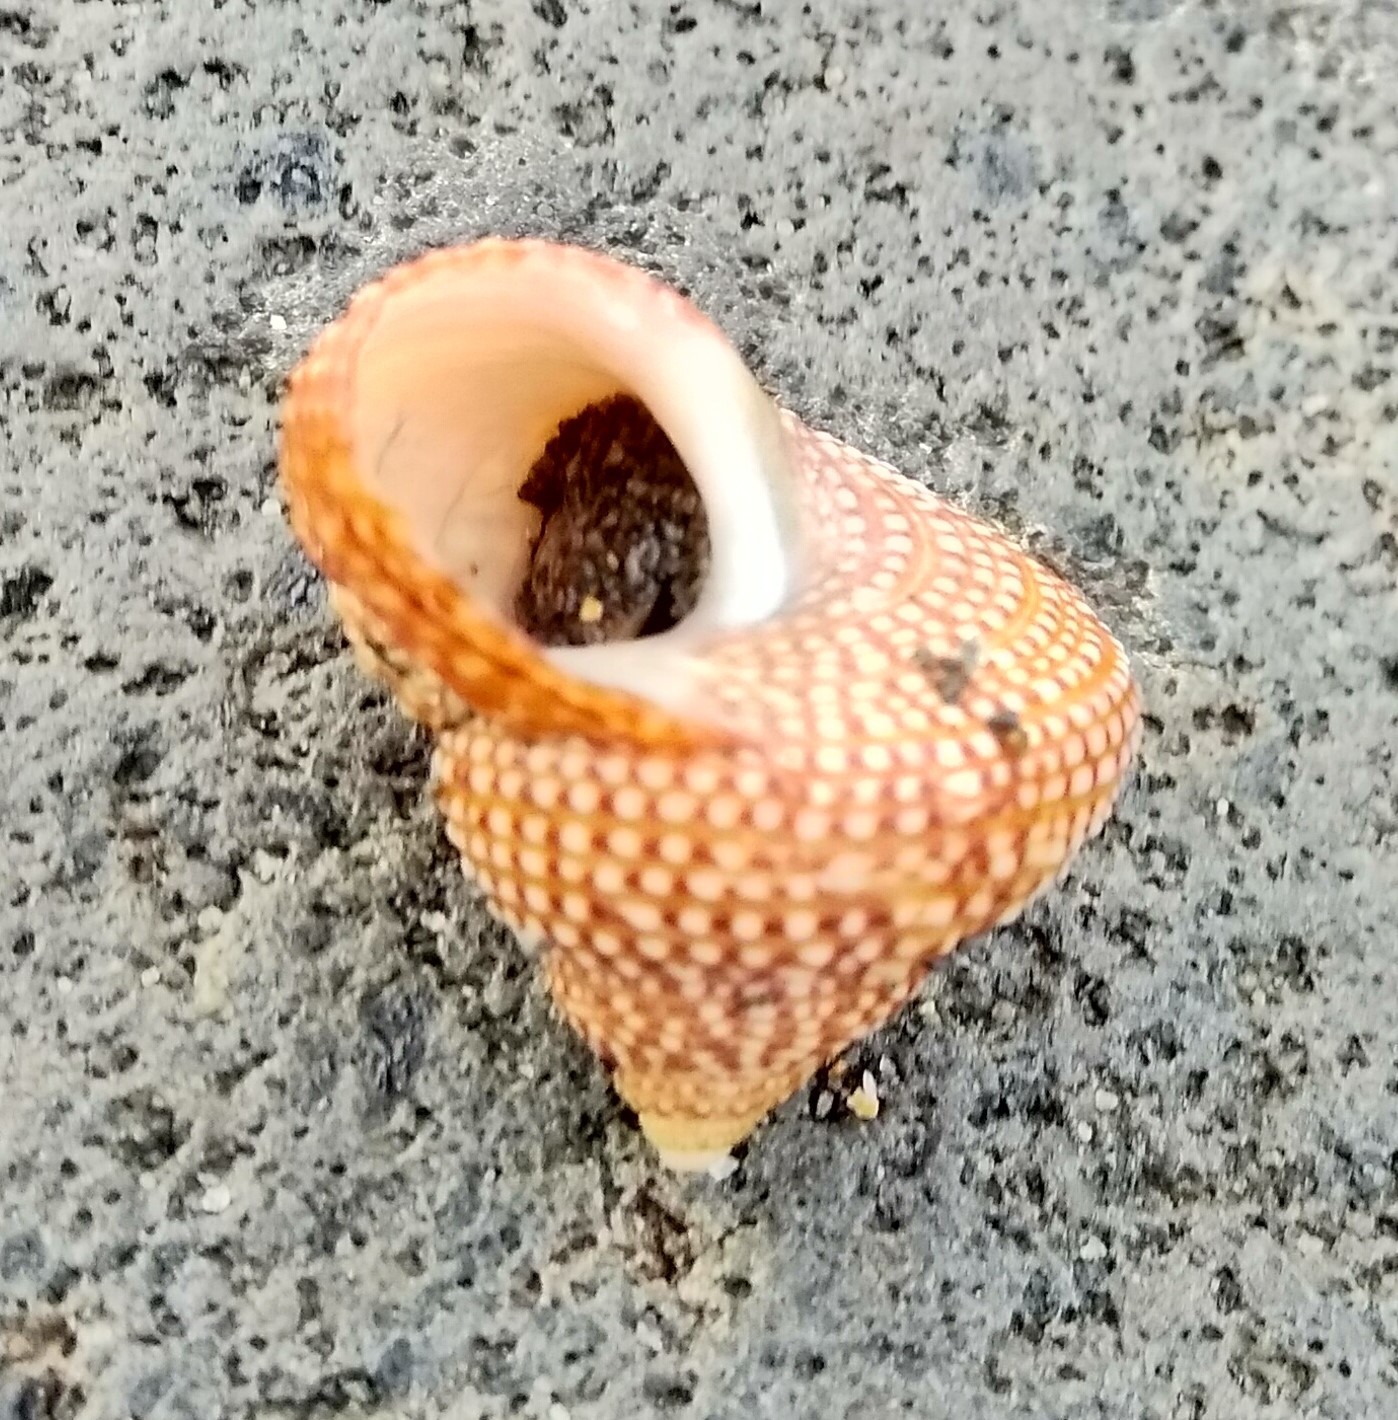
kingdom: Animalia
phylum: Mollusca
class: Gastropoda
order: Trochida
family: Calliostomatidae
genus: Maurea
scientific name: Maurea punctulata
